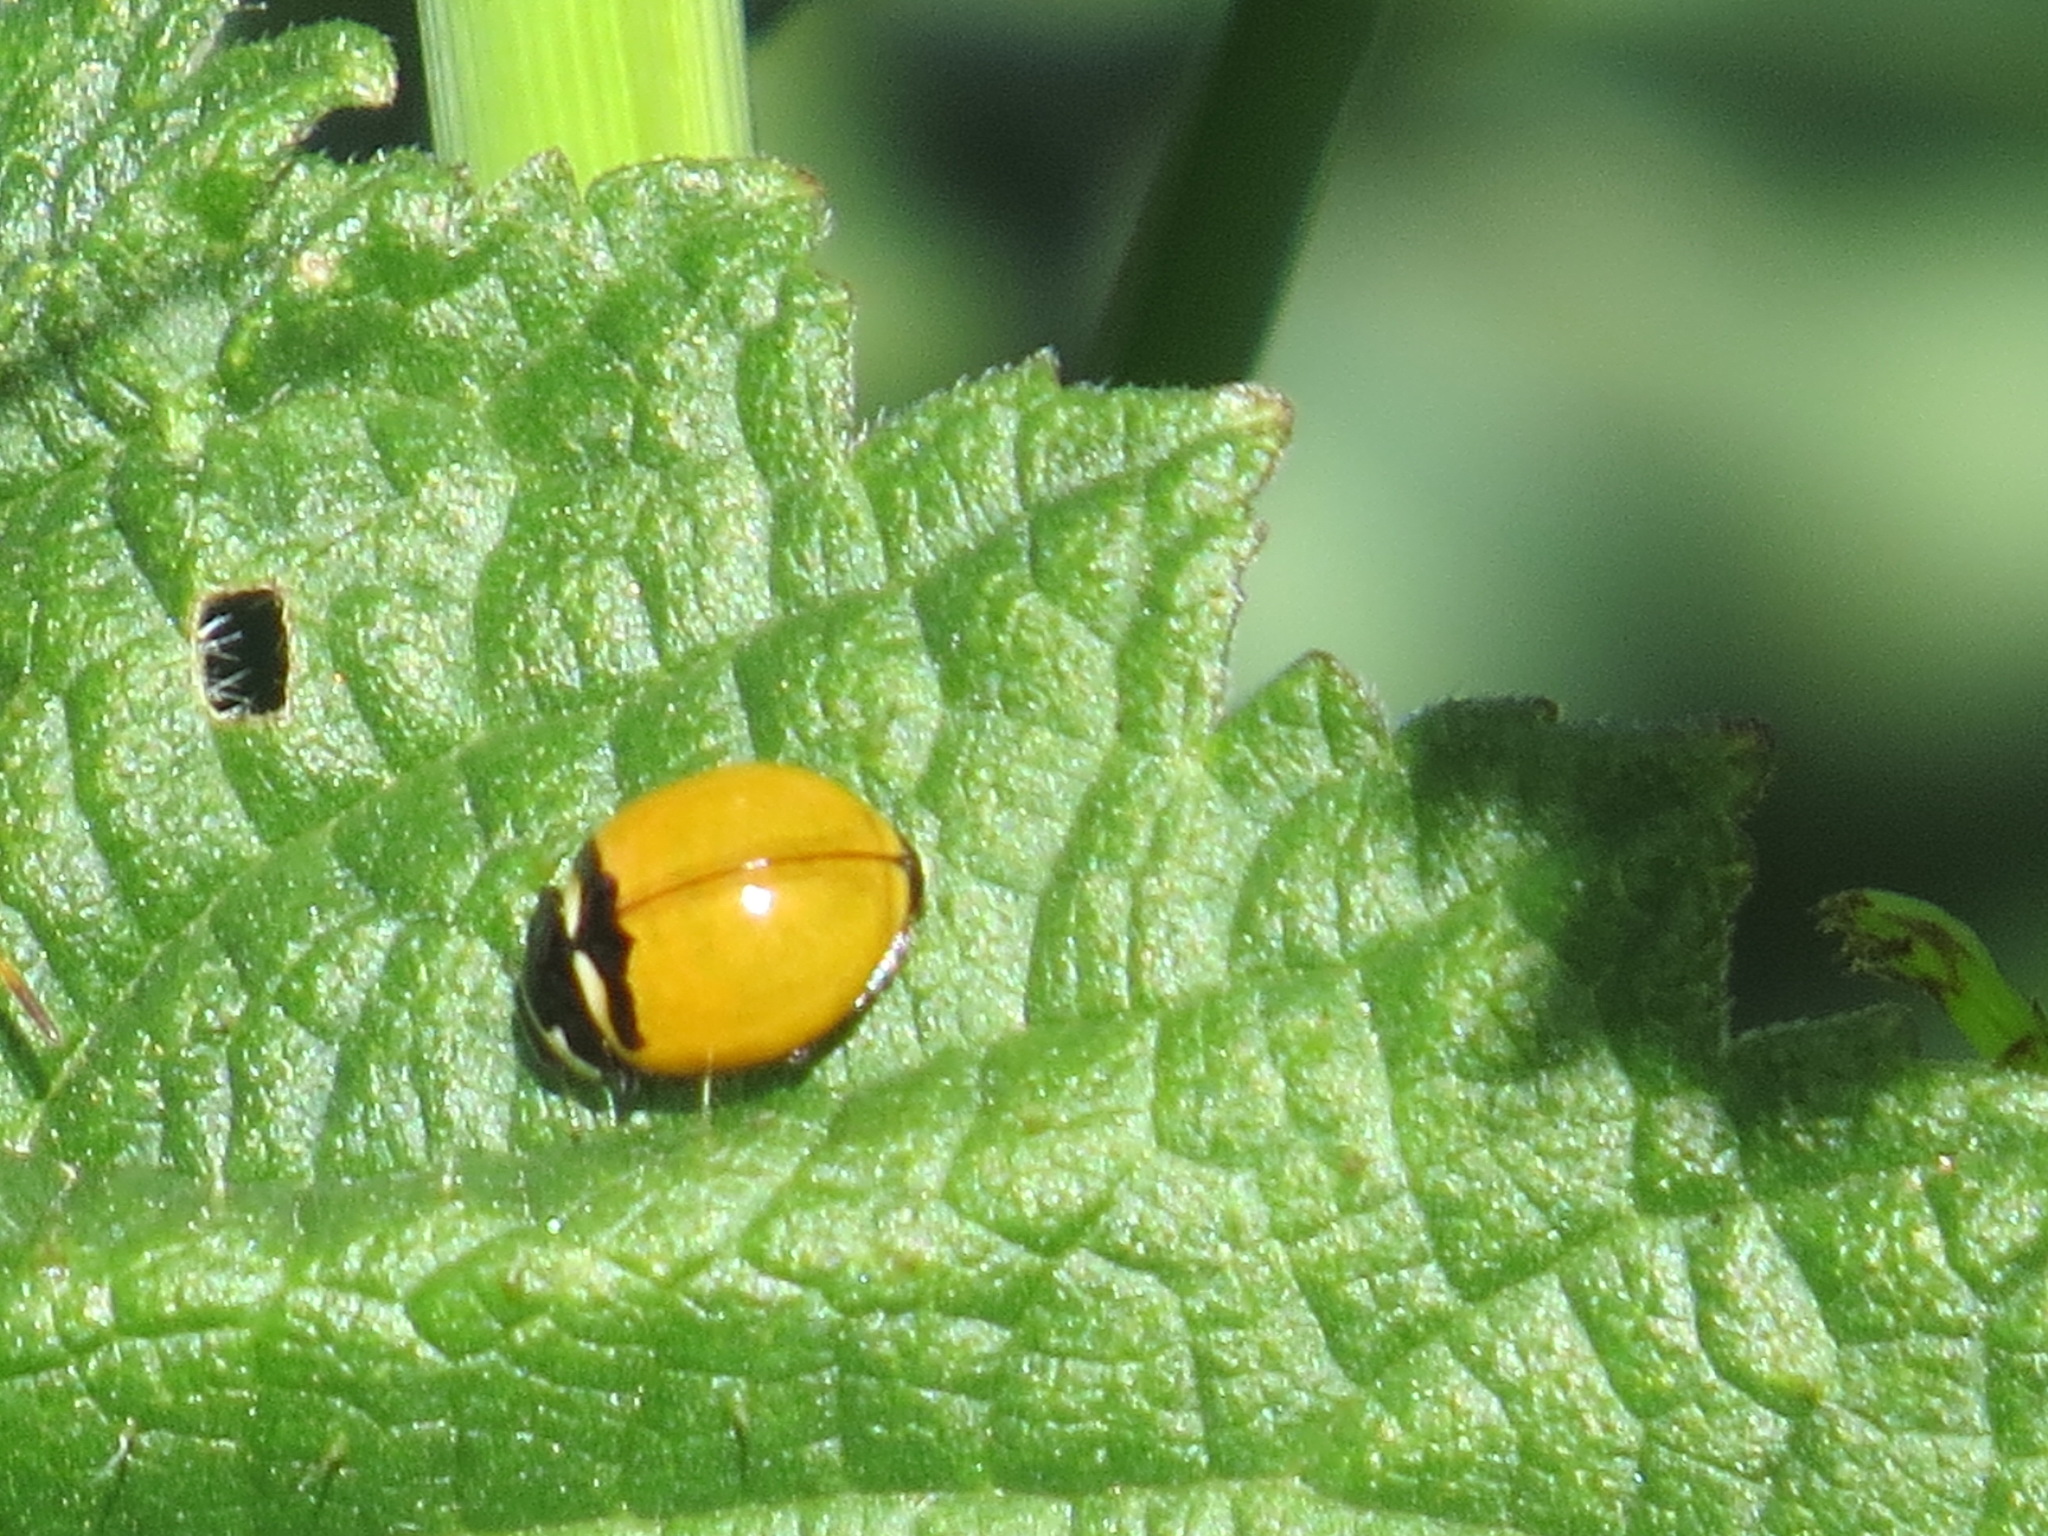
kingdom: Animalia
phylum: Arthropoda
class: Insecta
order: Coleoptera
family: Coccinellidae
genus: Coccinella
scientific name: Coccinella trifasciata
